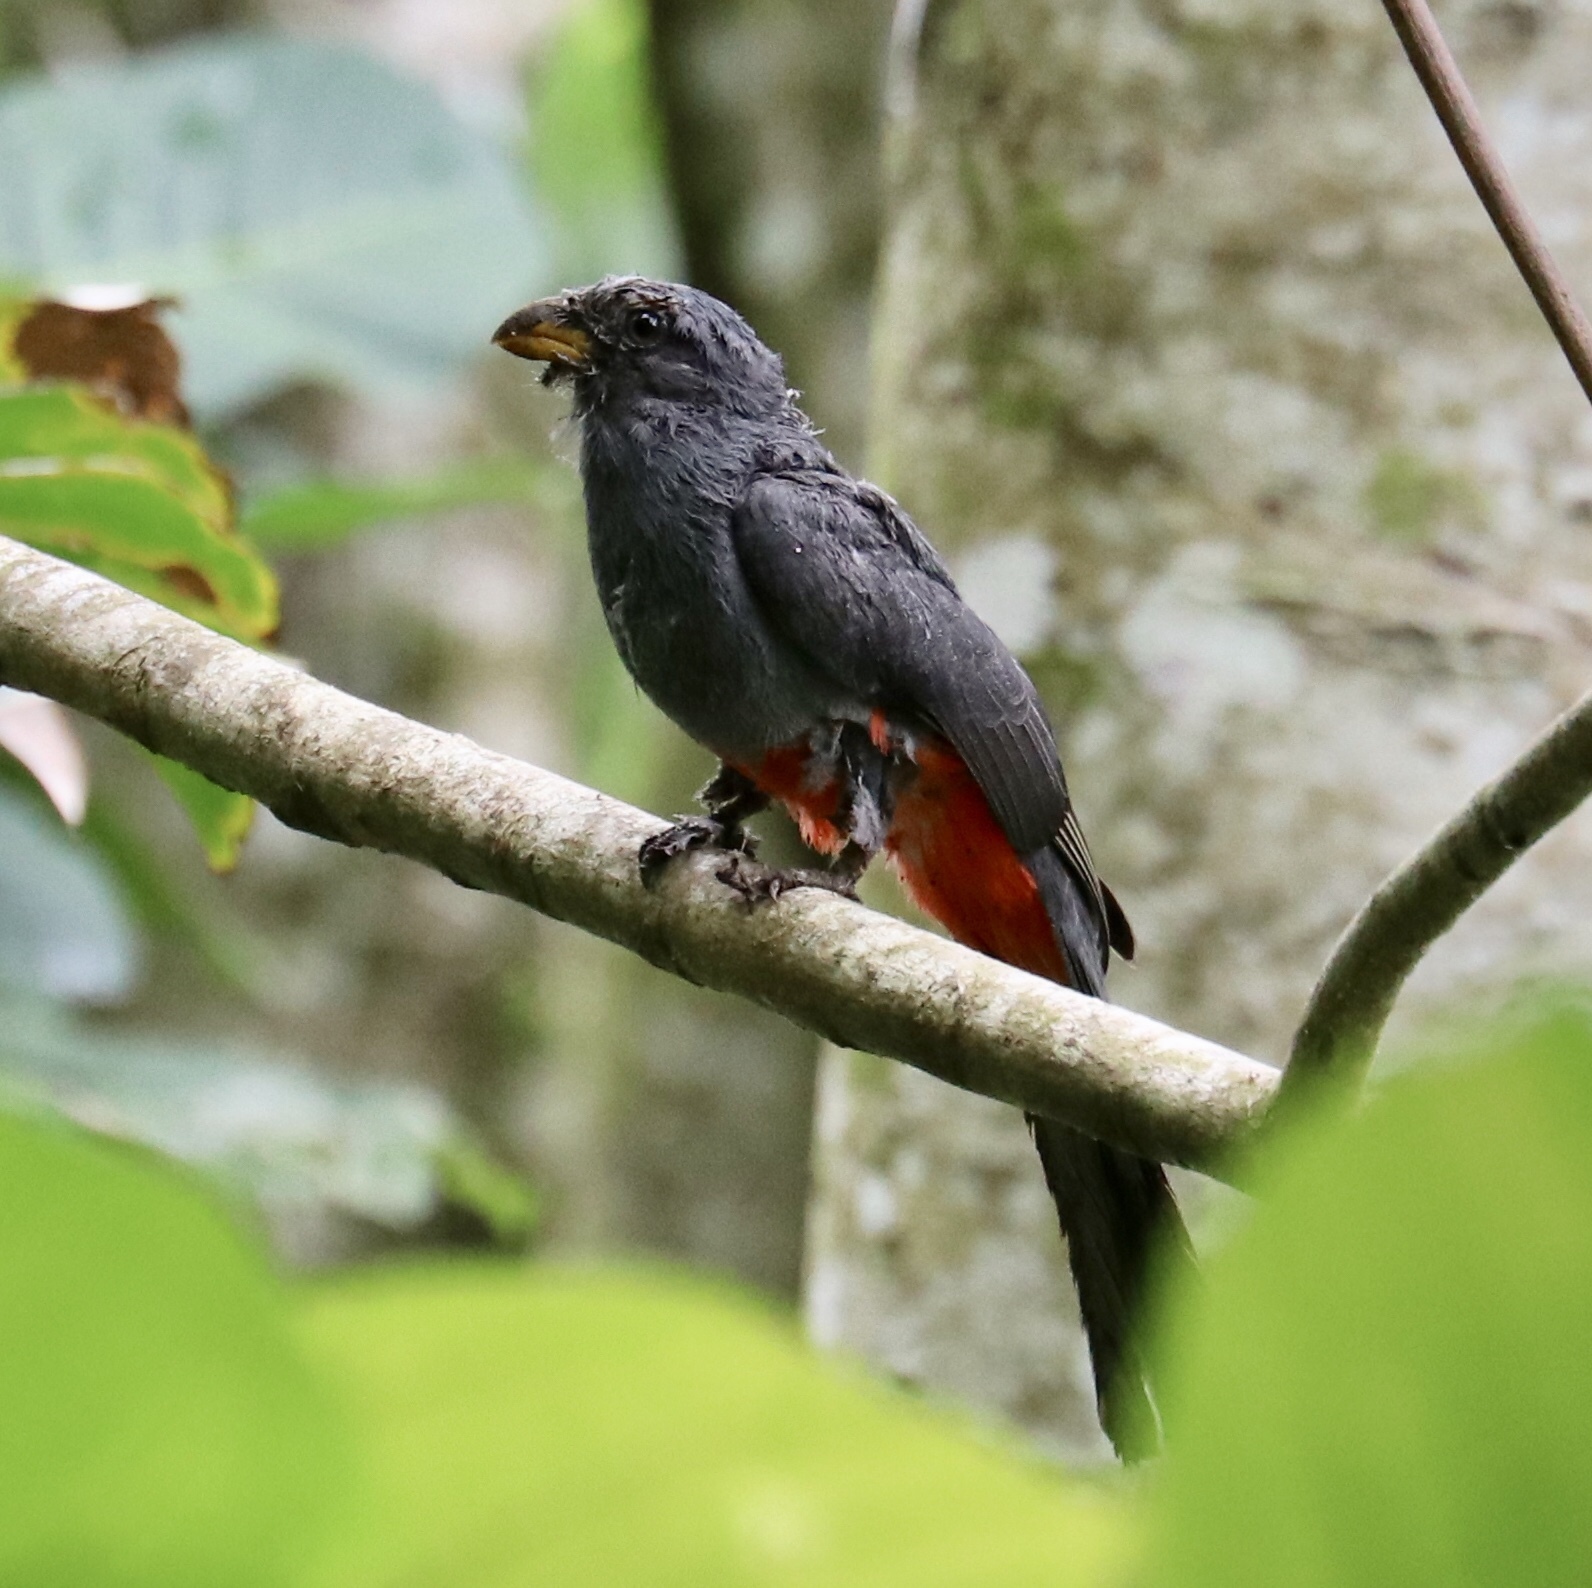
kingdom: Animalia
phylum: Chordata
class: Aves
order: Trogoniformes
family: Trogonidae
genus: Trogon
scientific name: Trogon massena
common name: Slaty-tailed trogon
